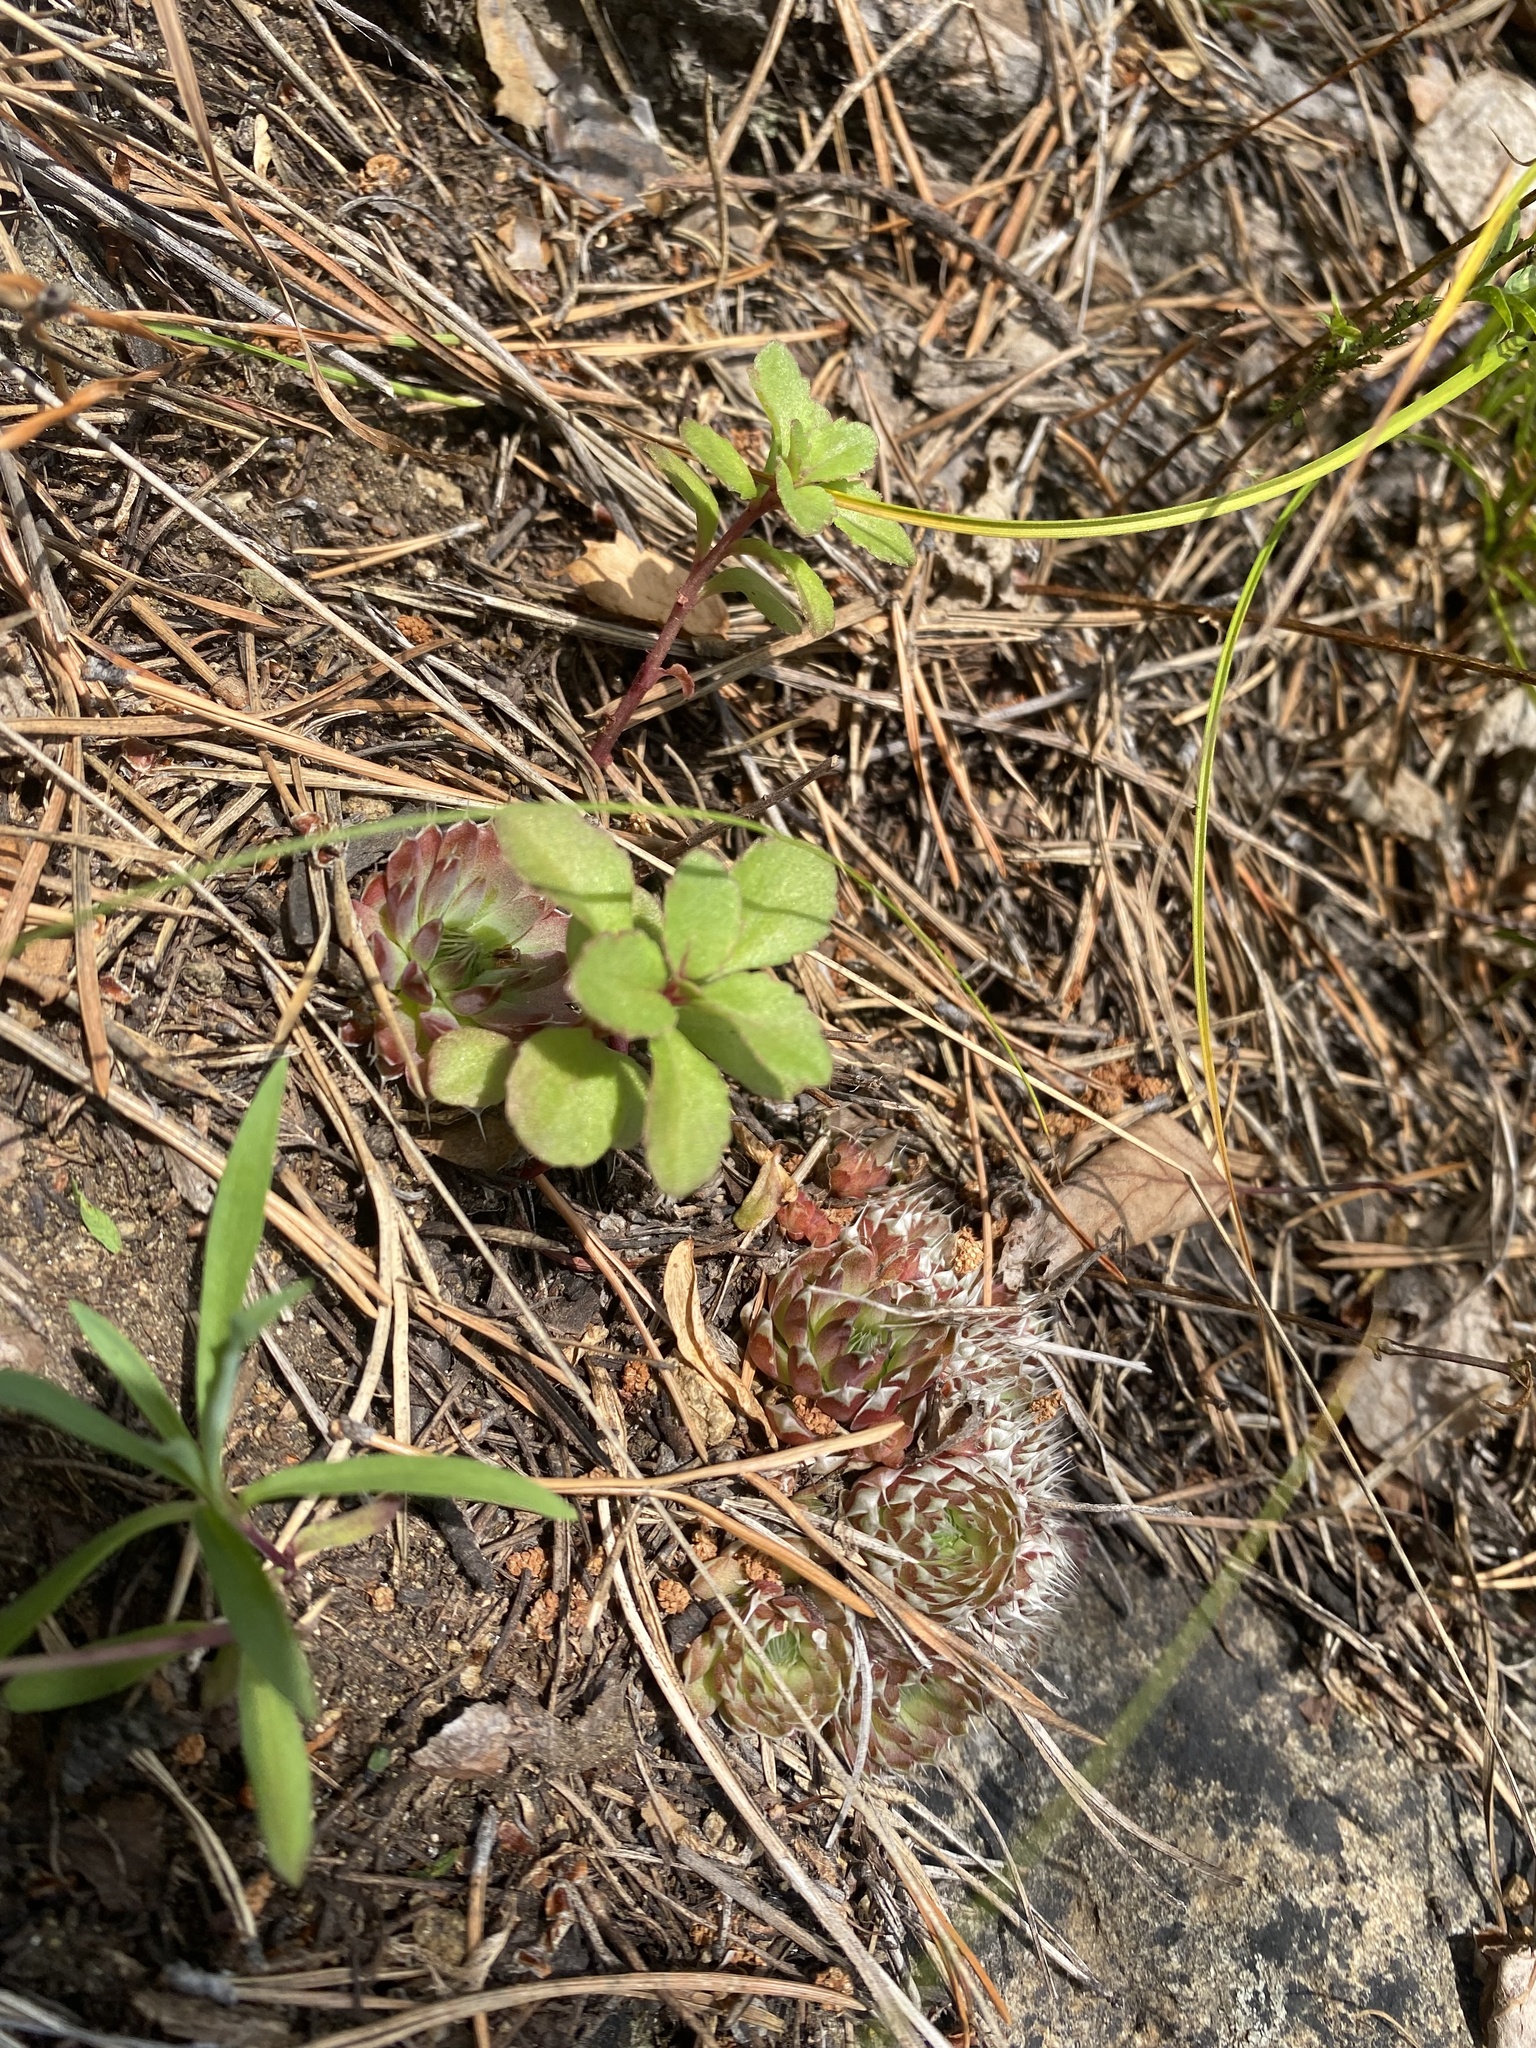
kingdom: Plantae
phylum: Tracheophyta
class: Magnoliopsida
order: Saxifragales
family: Crassulaceae
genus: Orostachys
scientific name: Orostachys spinosa
